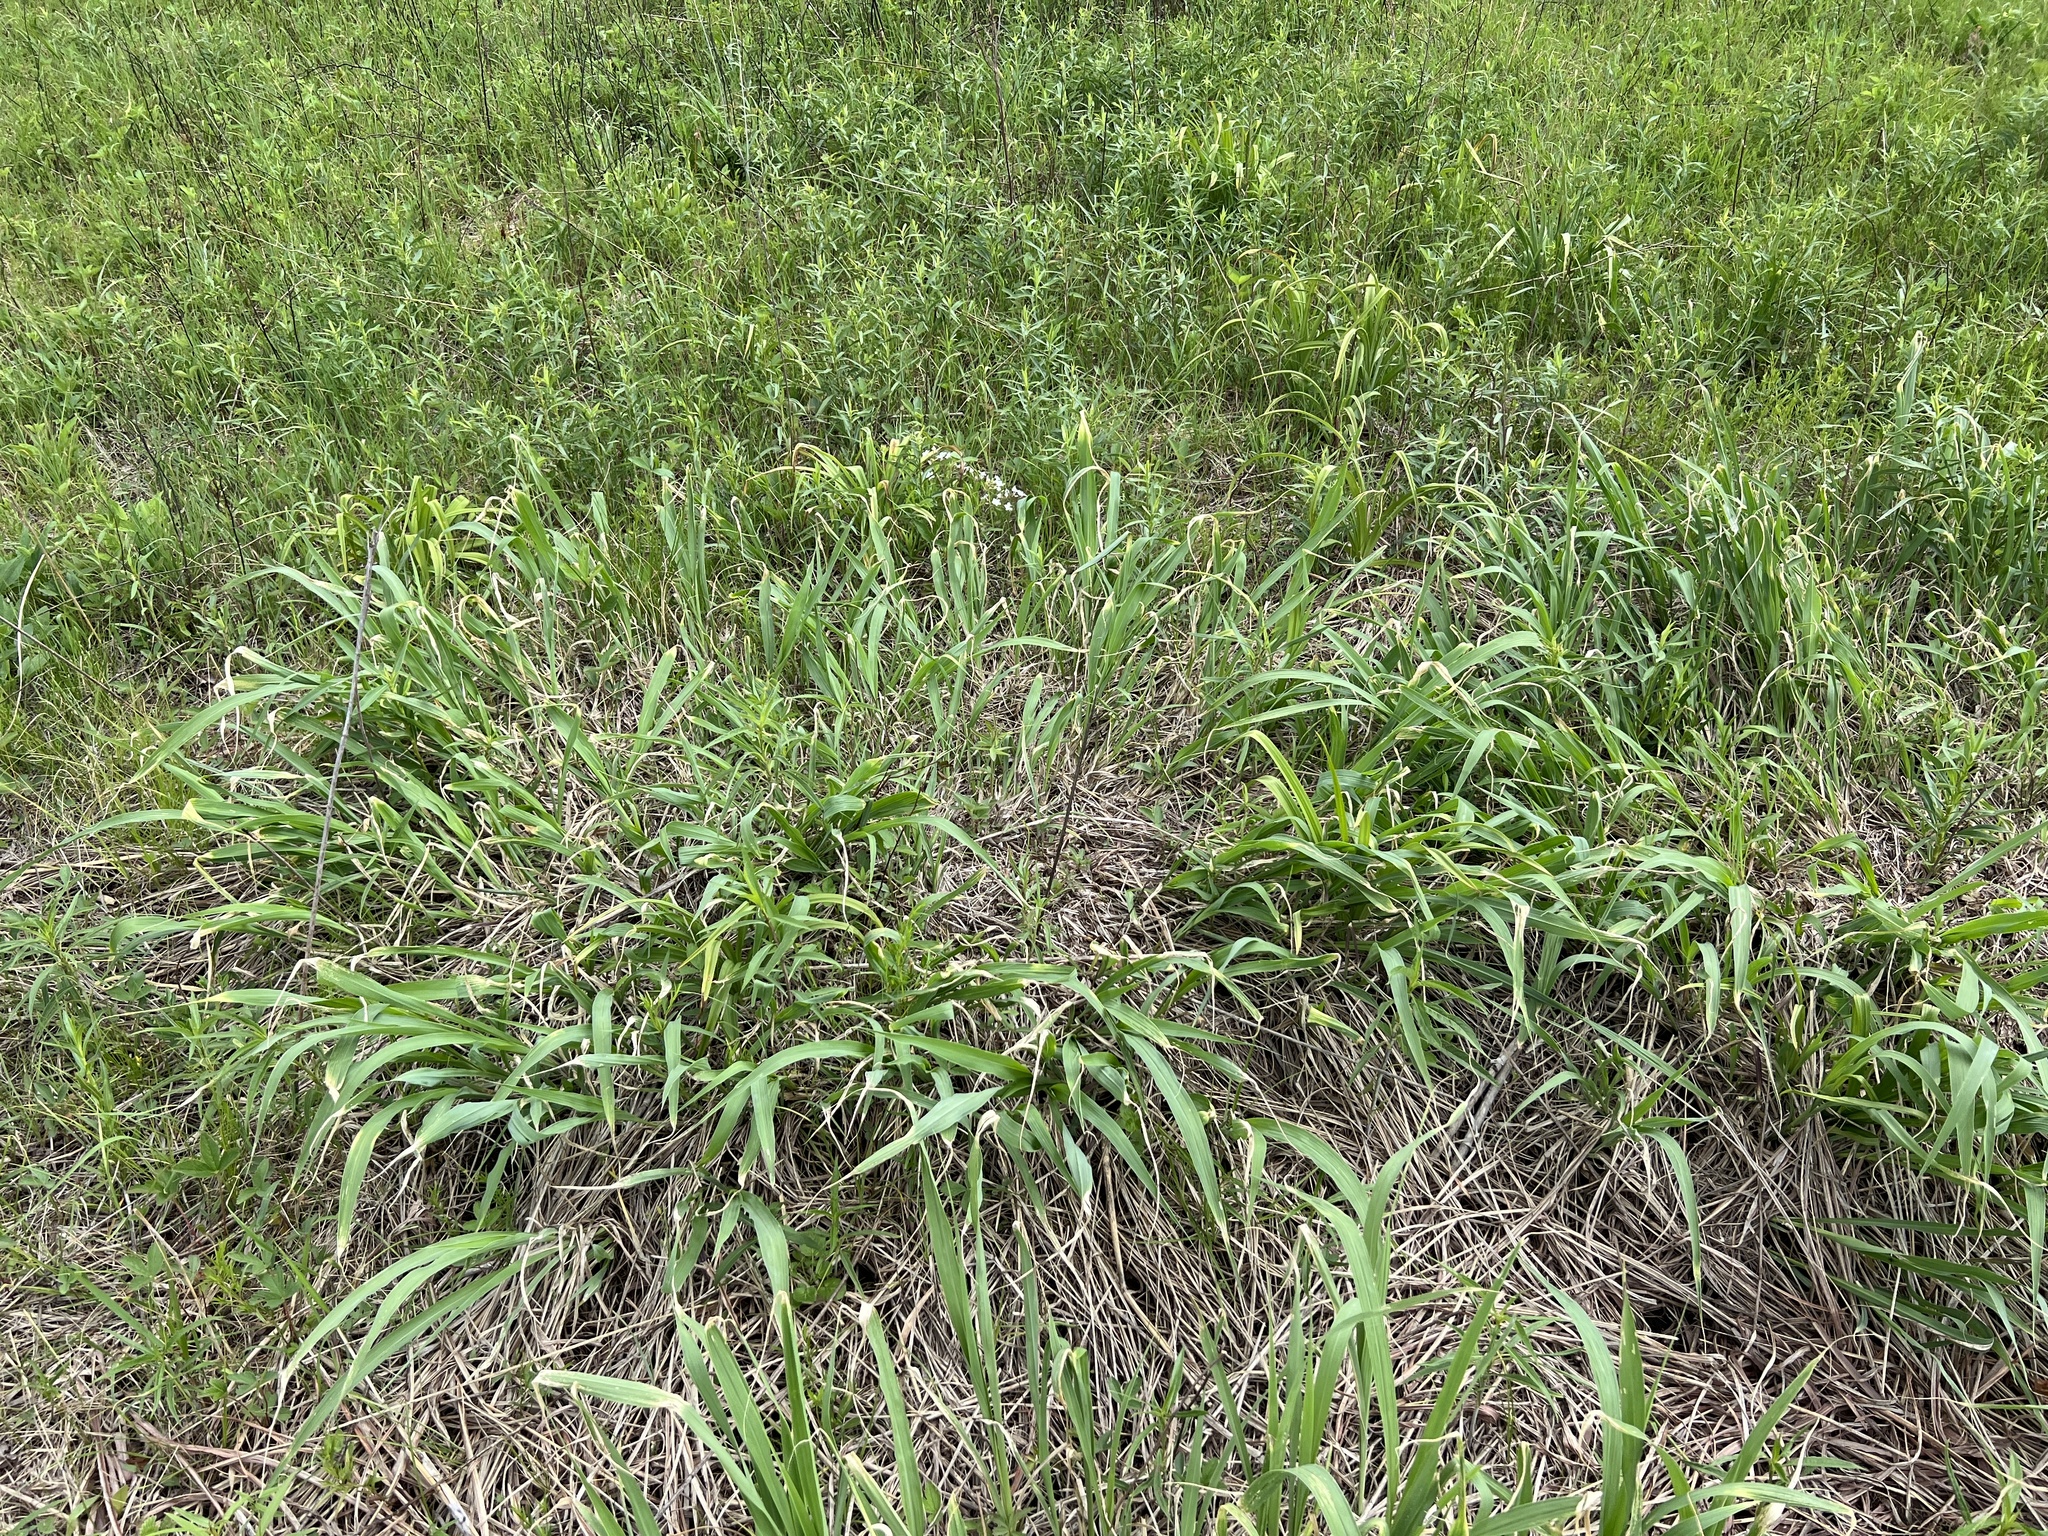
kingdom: Plantae
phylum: Tracheophyta
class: Liliopsida
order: Poales
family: Poaceae
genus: Tripsacum
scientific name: Tripsacum dactyloides
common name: Buffalo-grass
